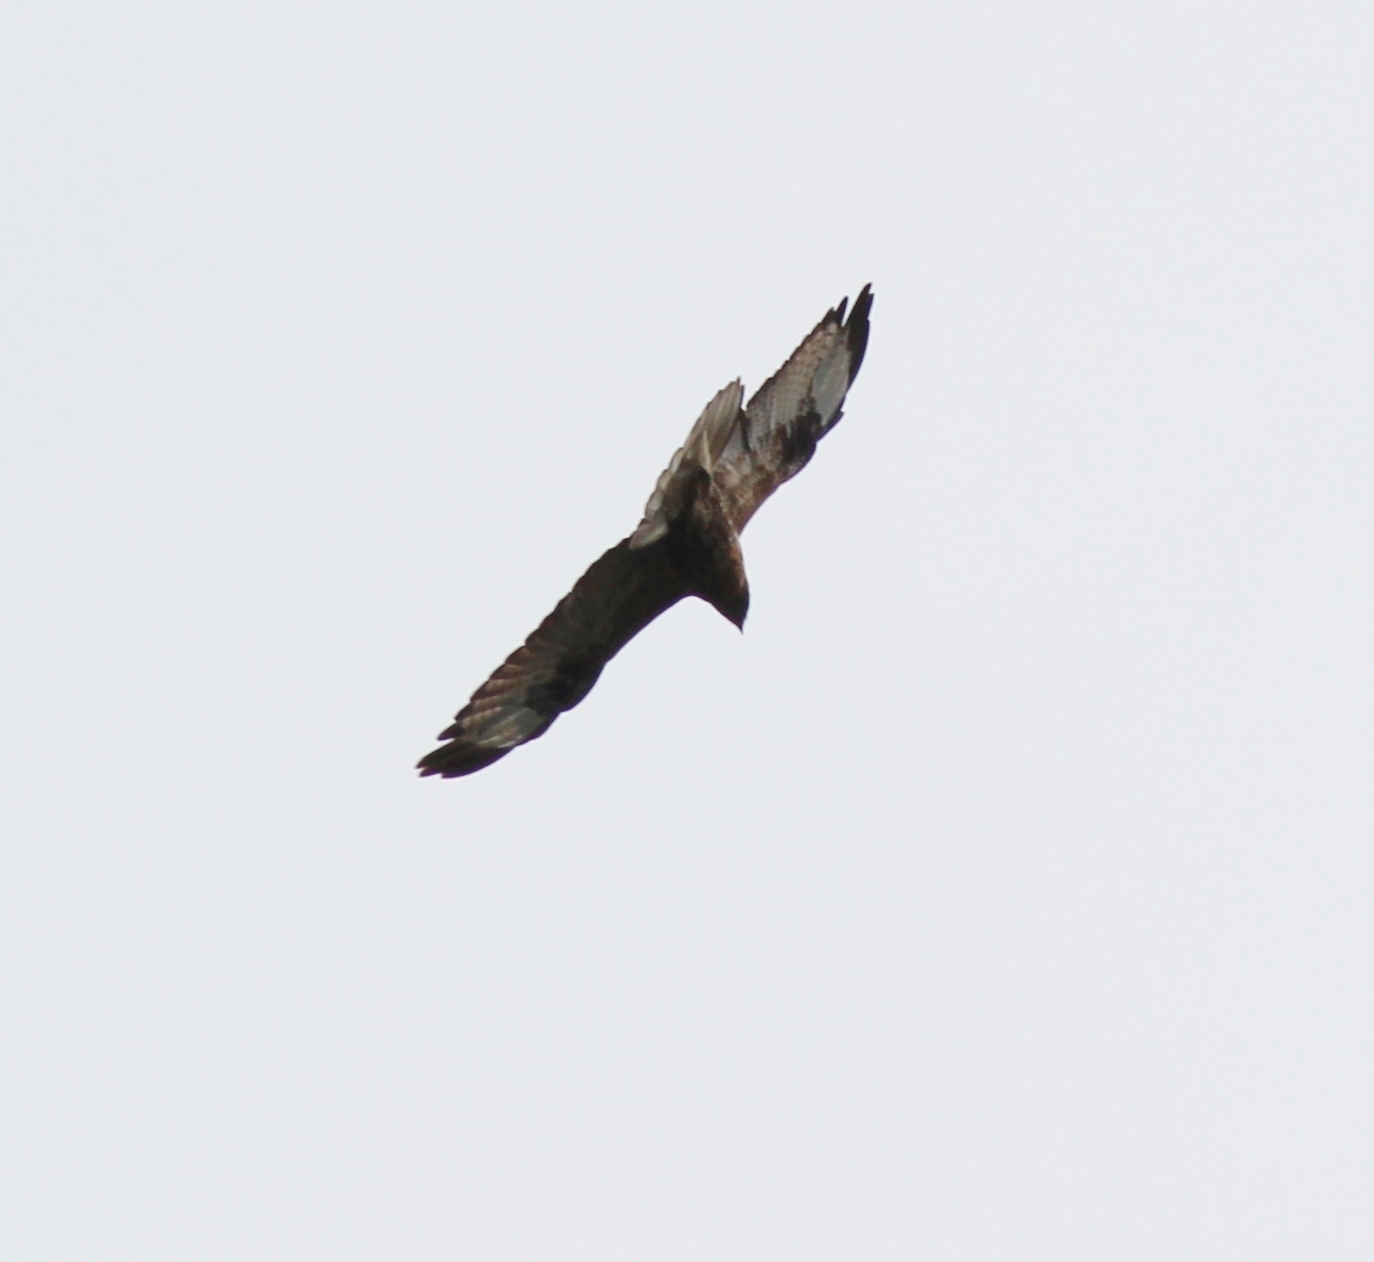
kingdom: Animalia
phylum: Chordata
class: Aves
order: Accipitriformes
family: Accipitridae
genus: Buteo
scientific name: Buteo japonicus
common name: Eastern buzzard
